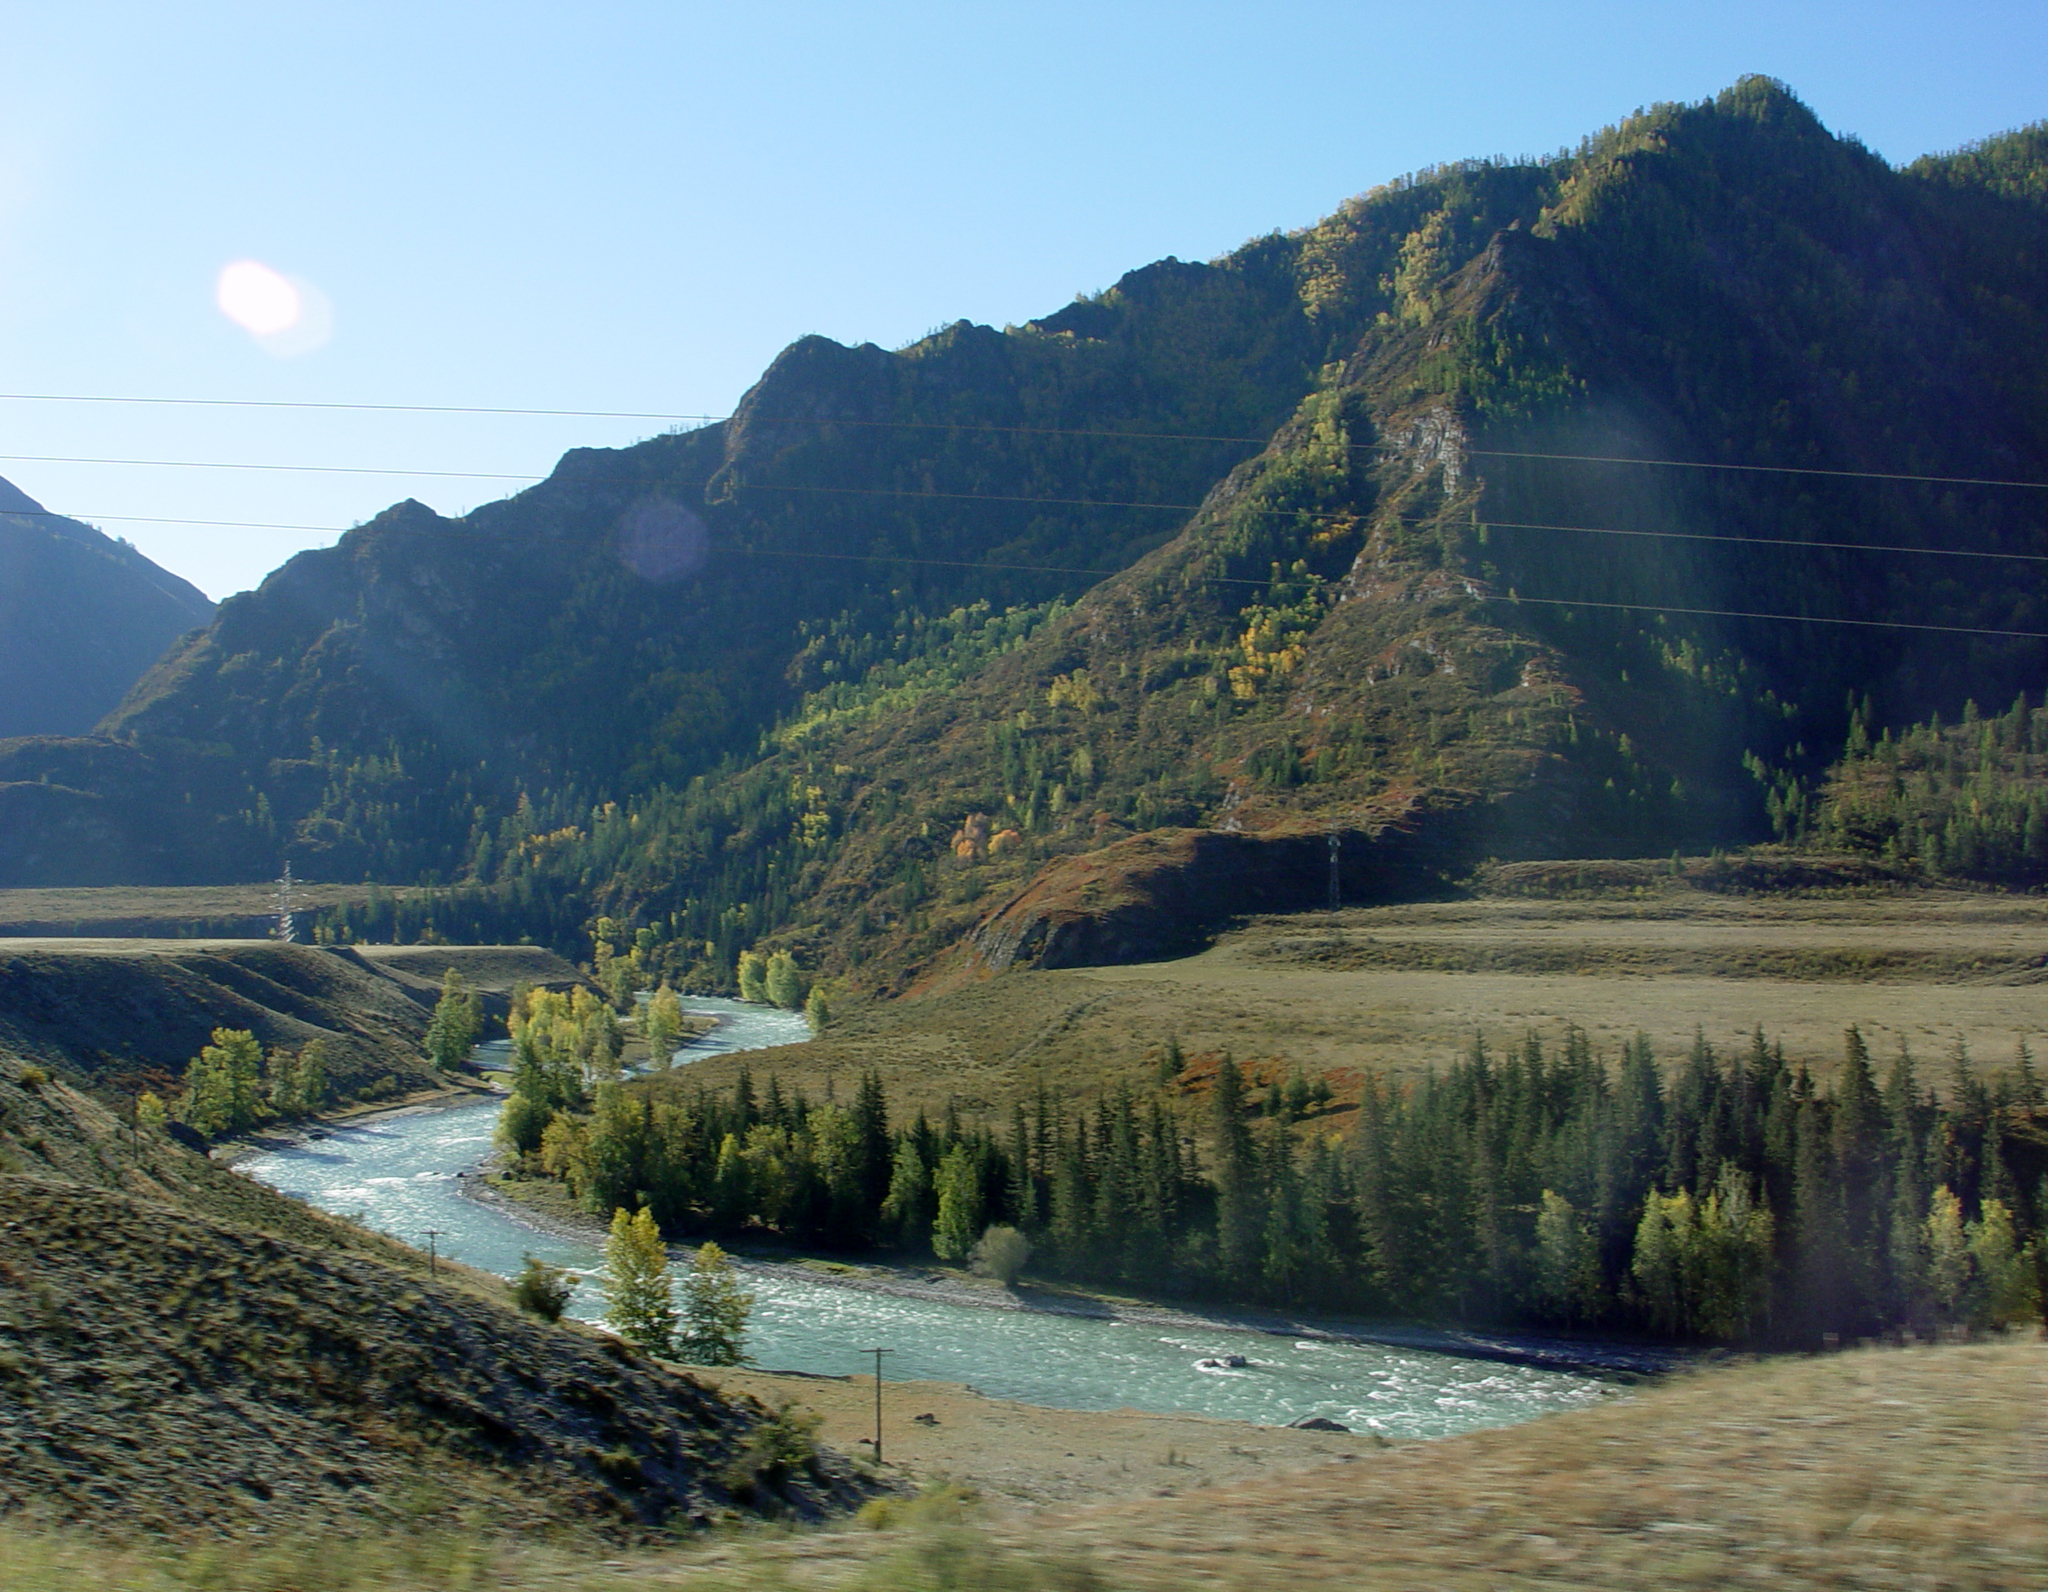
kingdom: Plantae
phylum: Tracheophyta
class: Pinopsida
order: Pinales
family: Pinaceae
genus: Picea
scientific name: Picea obovata
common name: Siberian spruce
